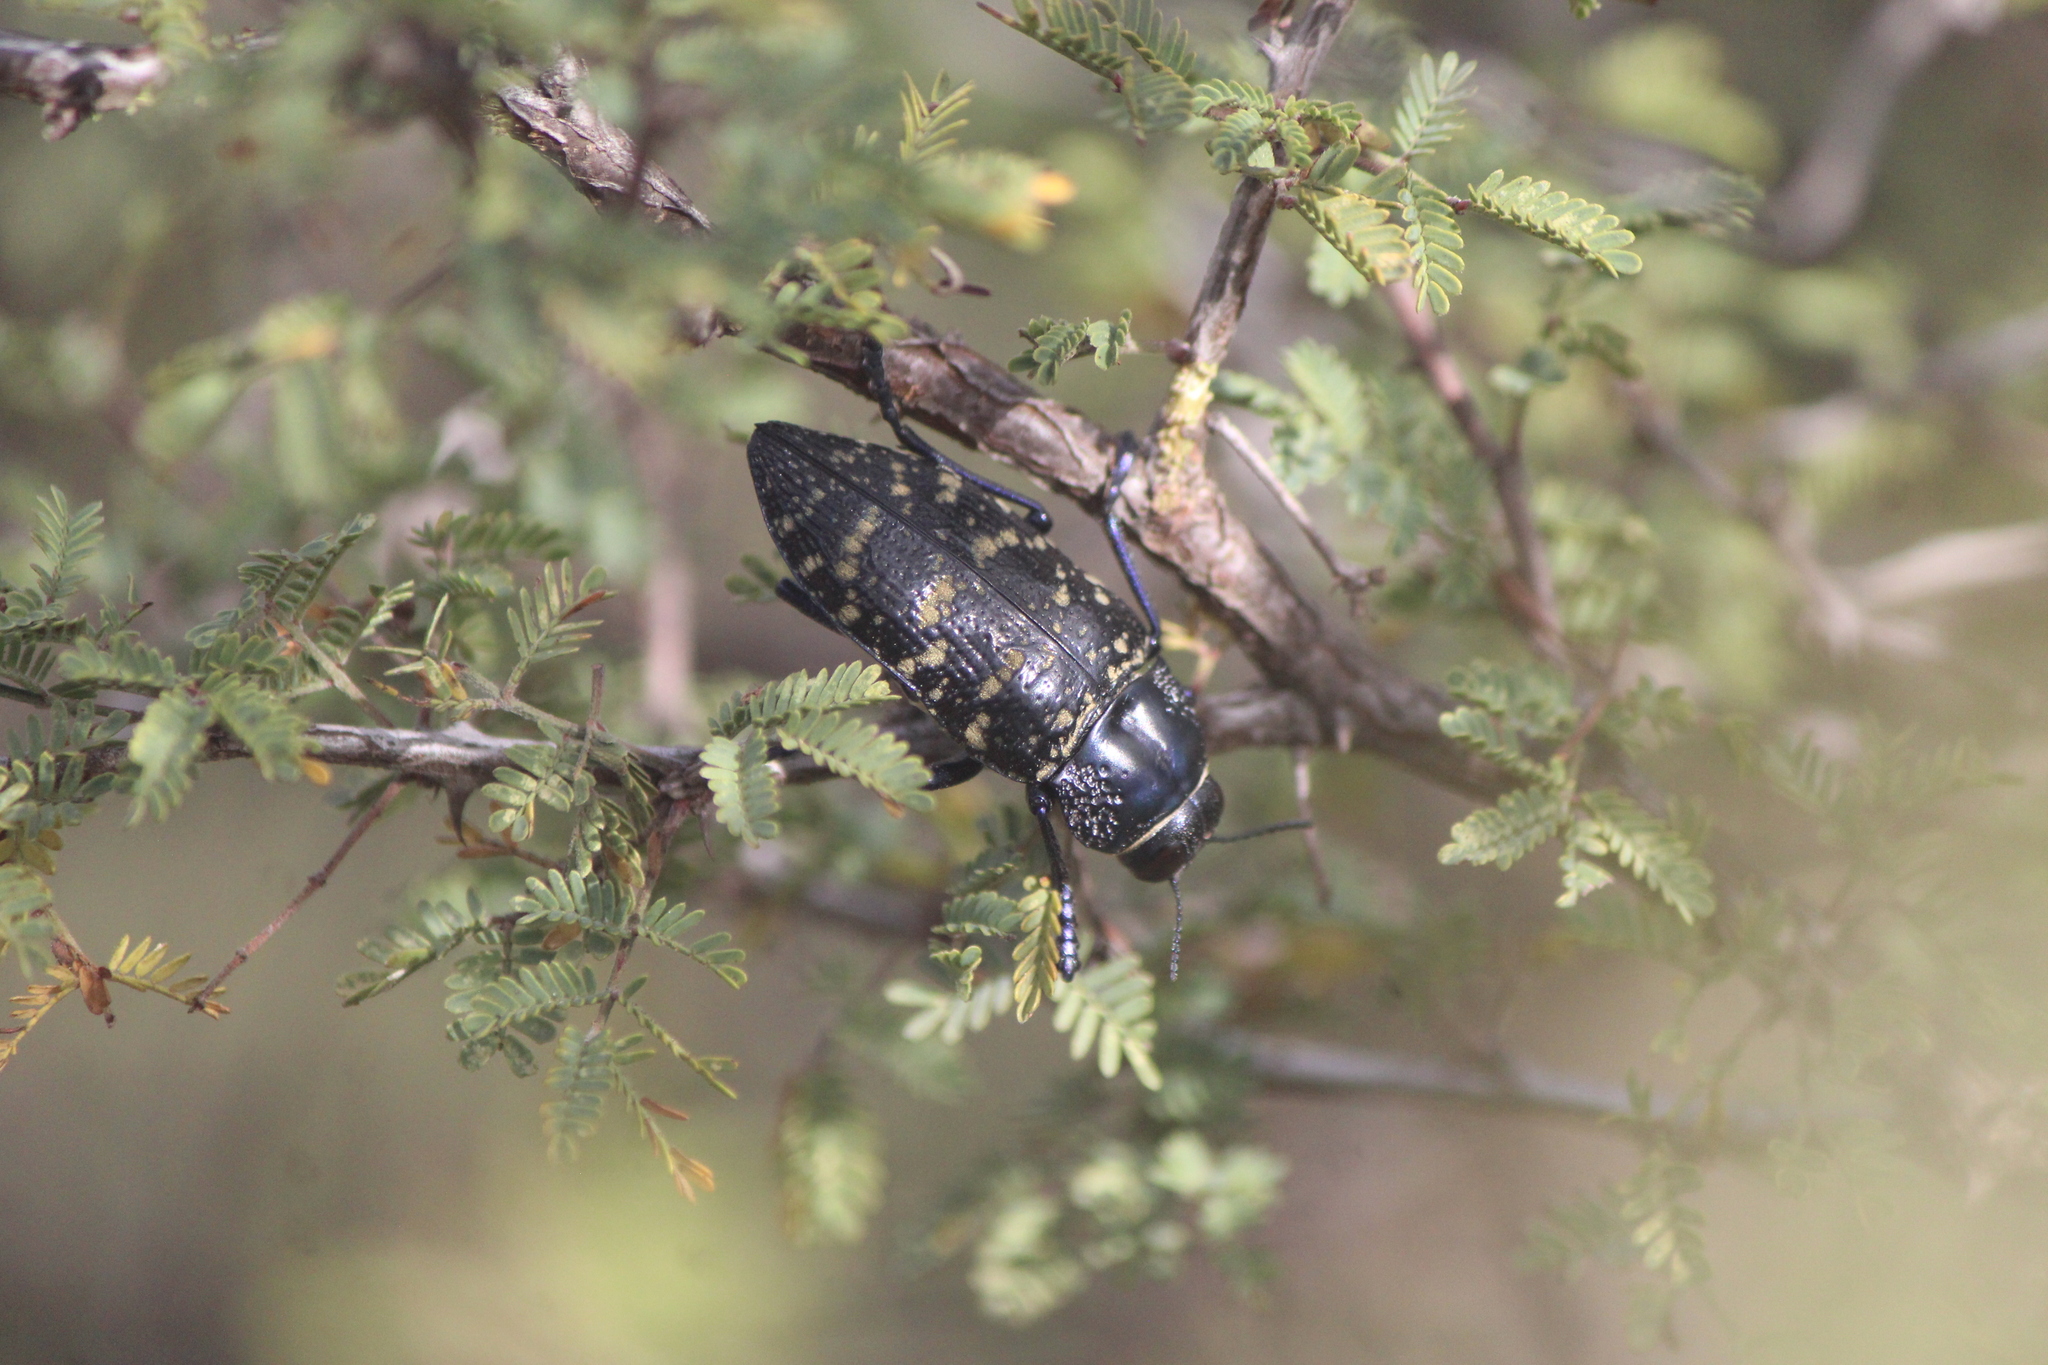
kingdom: Animalia
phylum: Arthropoda
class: Insecta
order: Coleoptera
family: Buprestidae
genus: Lampetis
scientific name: Lampetis dilaticollis
